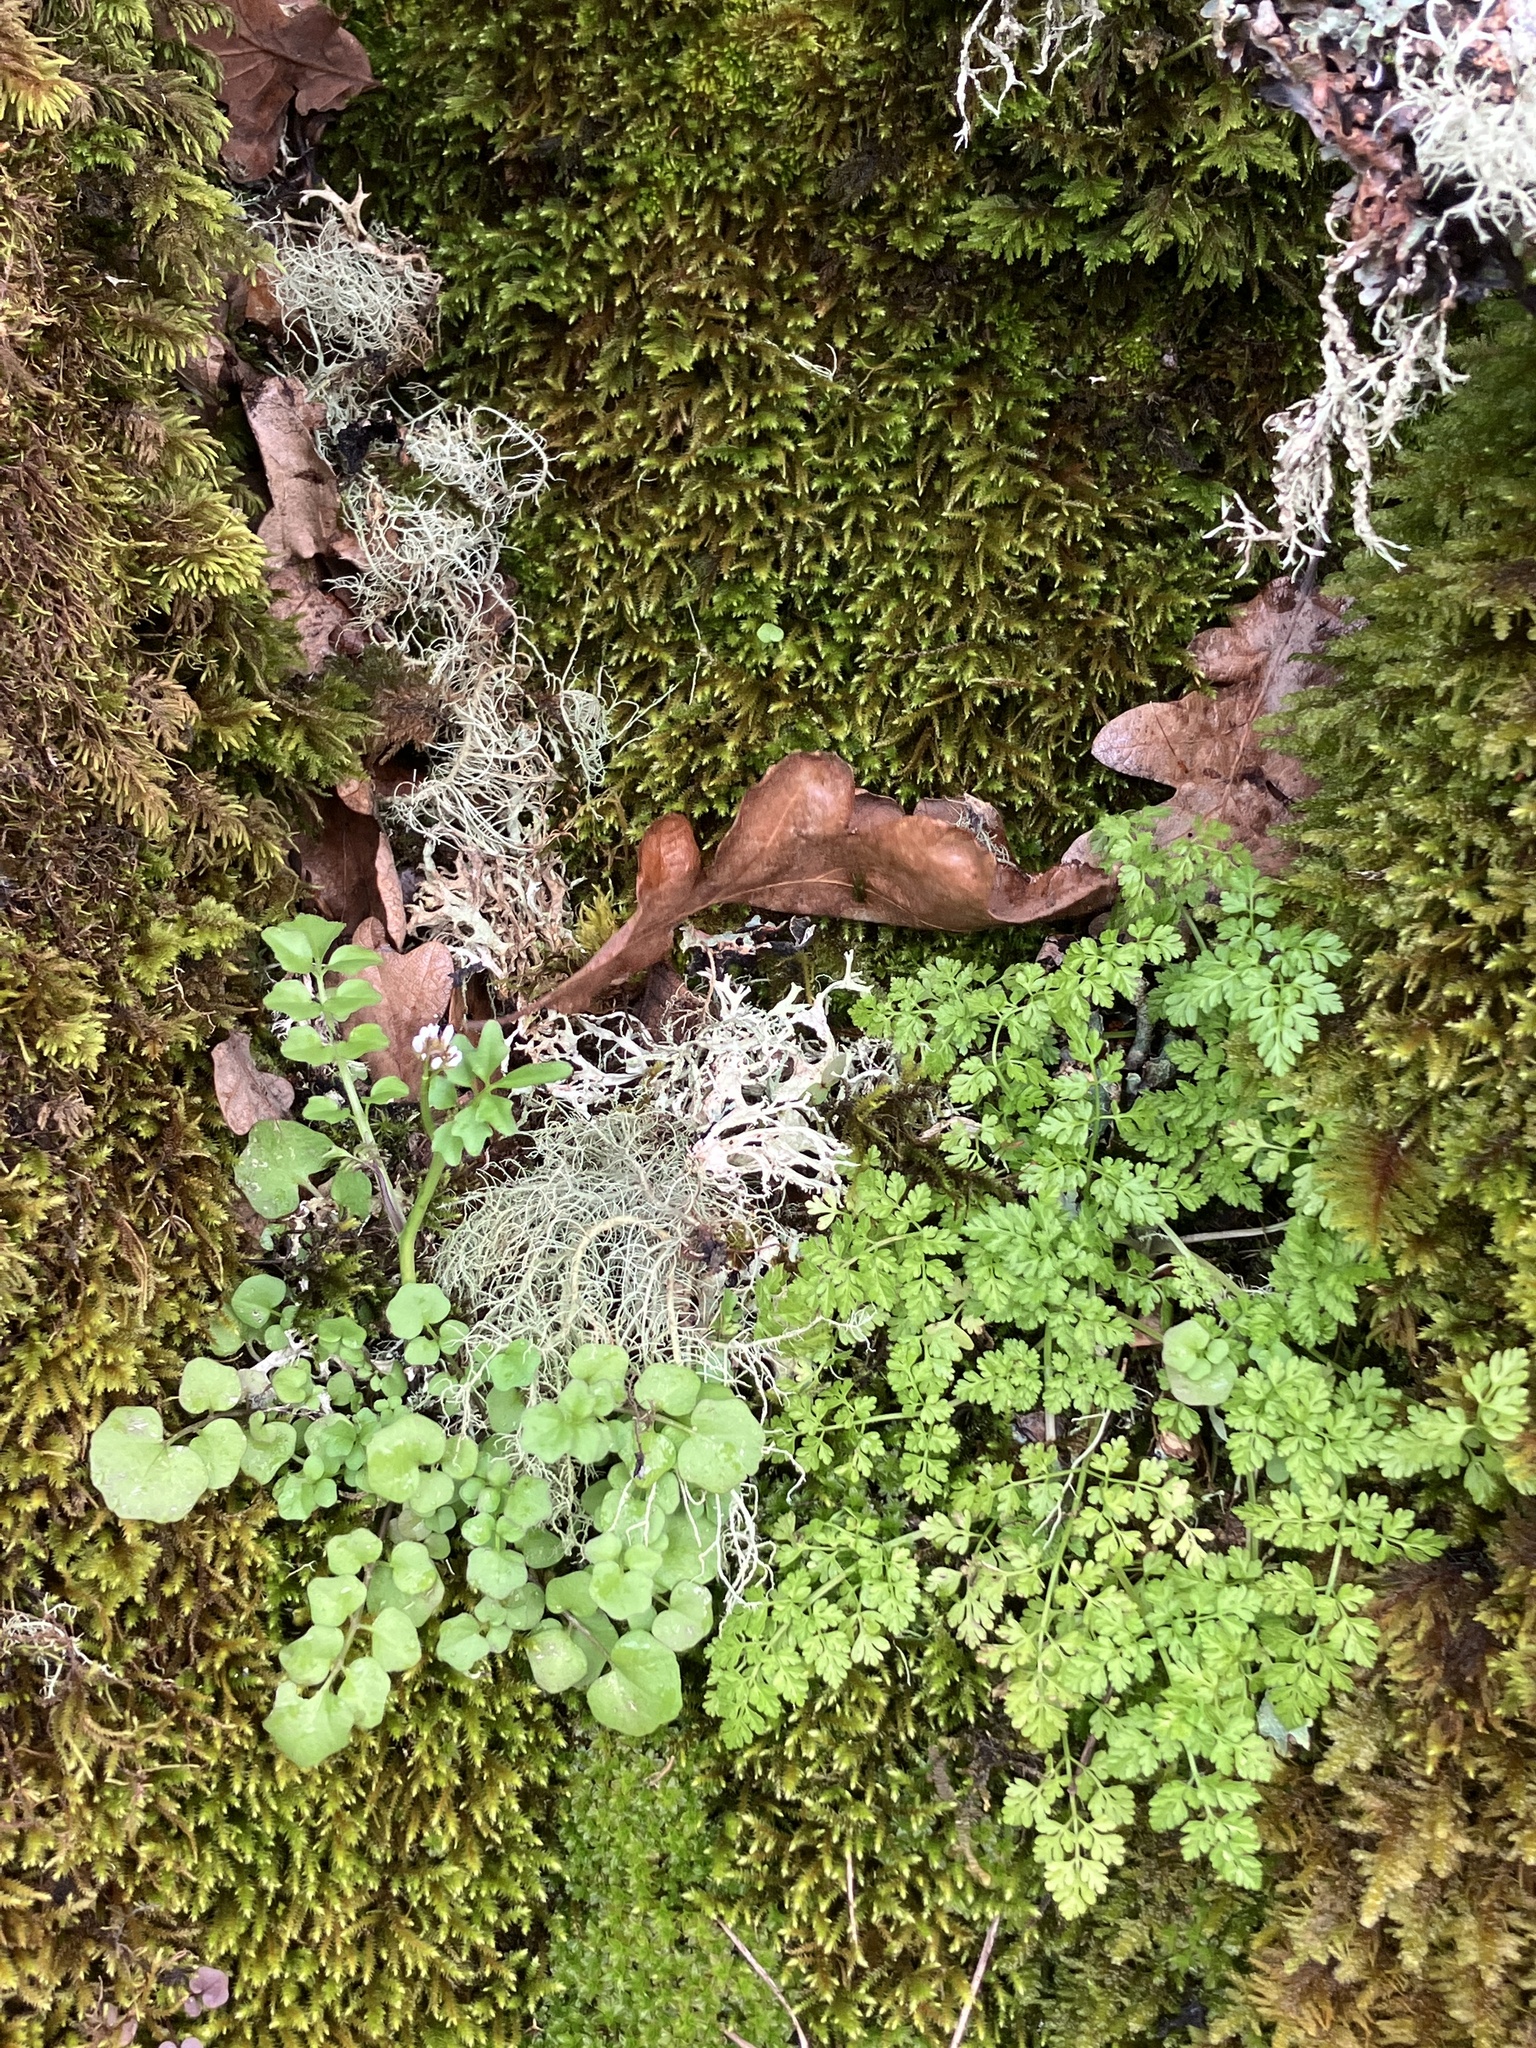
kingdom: Plantae
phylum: Tracheophyta
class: Magnoliopsida
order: Apiales
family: Apiaceae
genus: Anthriscus
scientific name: Anthriscus caucalis
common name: Bur chervil
